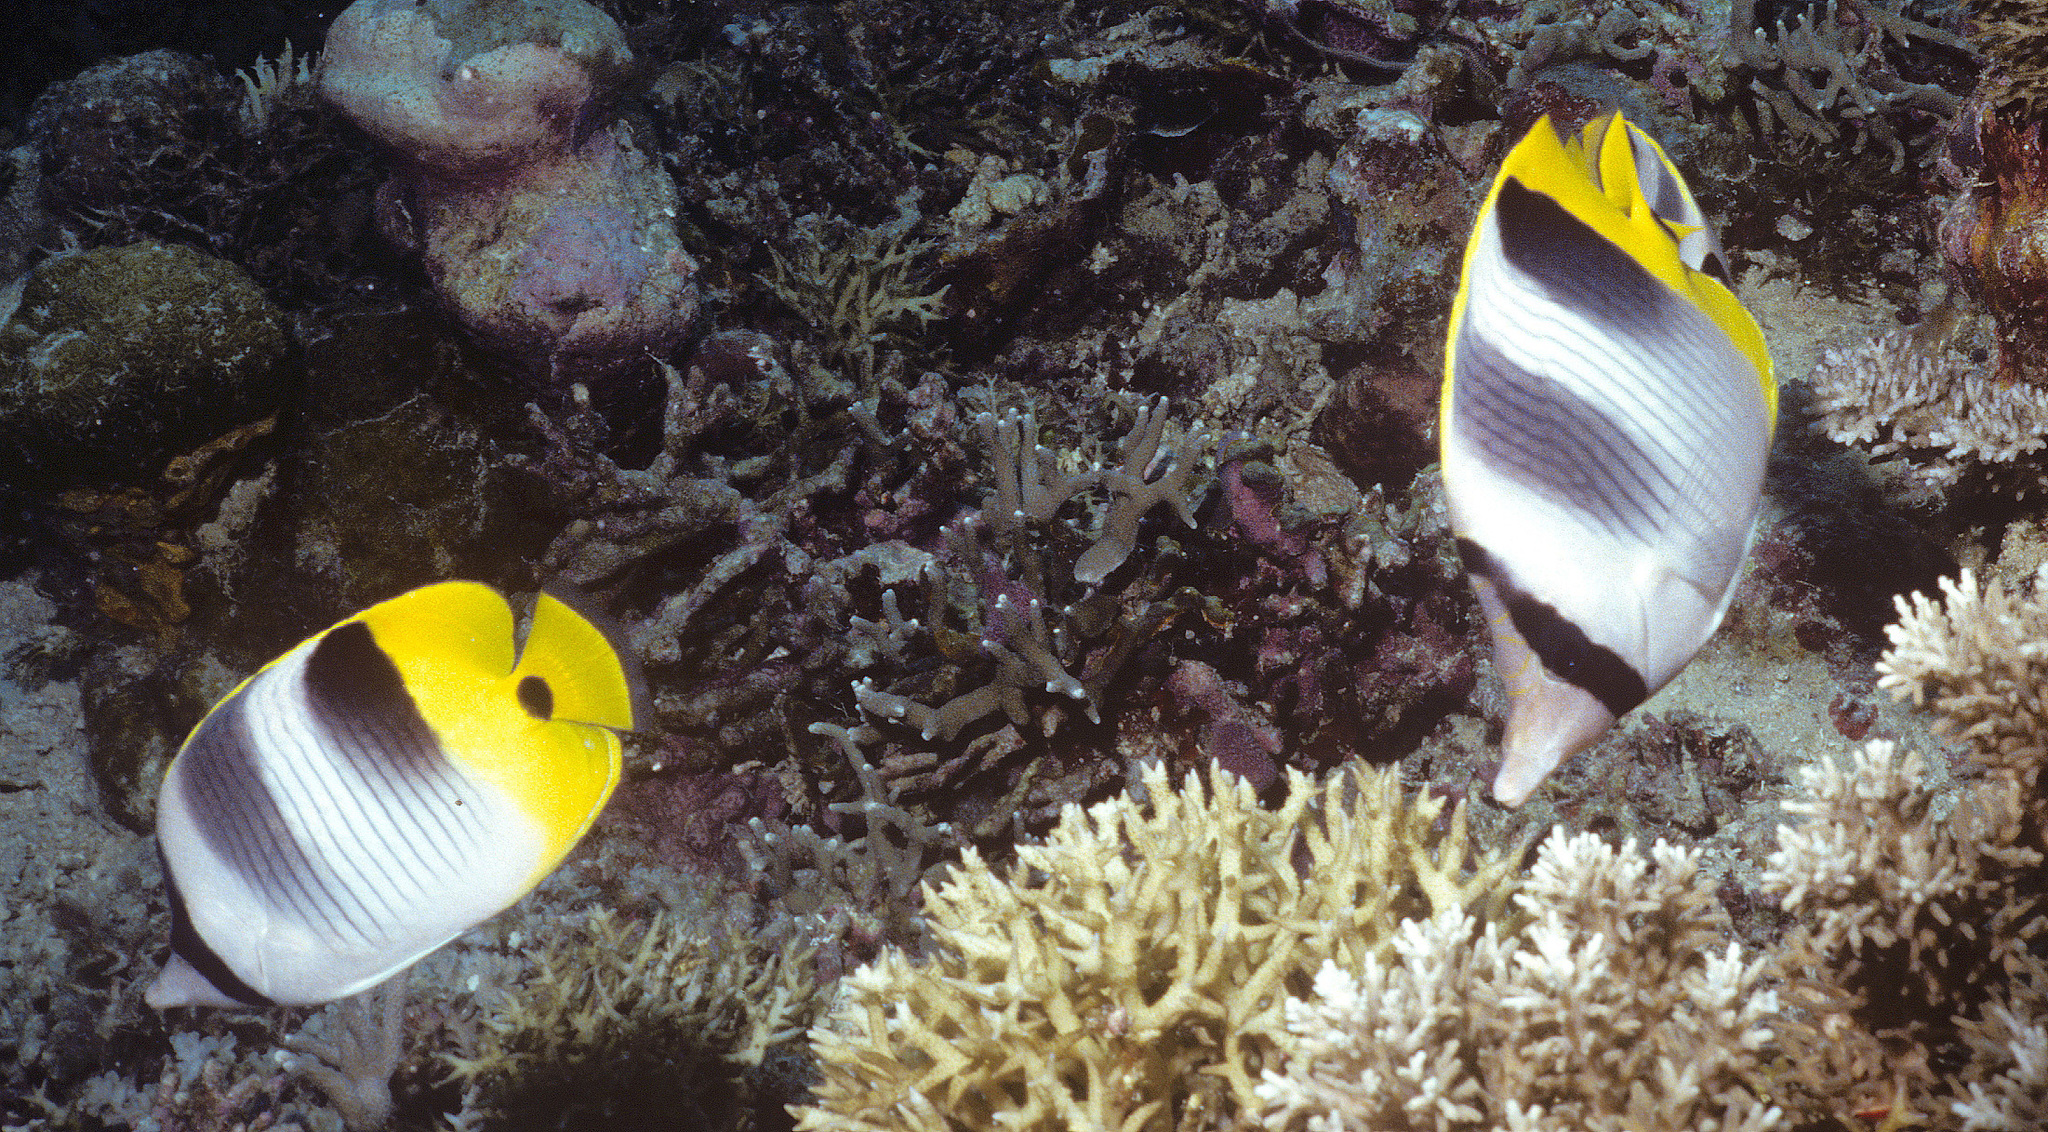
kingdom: Animalia
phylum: Chordata
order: Perciformes
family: Chaetodontidae
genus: Chaetodon
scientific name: Chaetodon ulietensis
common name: Pacific double-saddle butterflyfish
